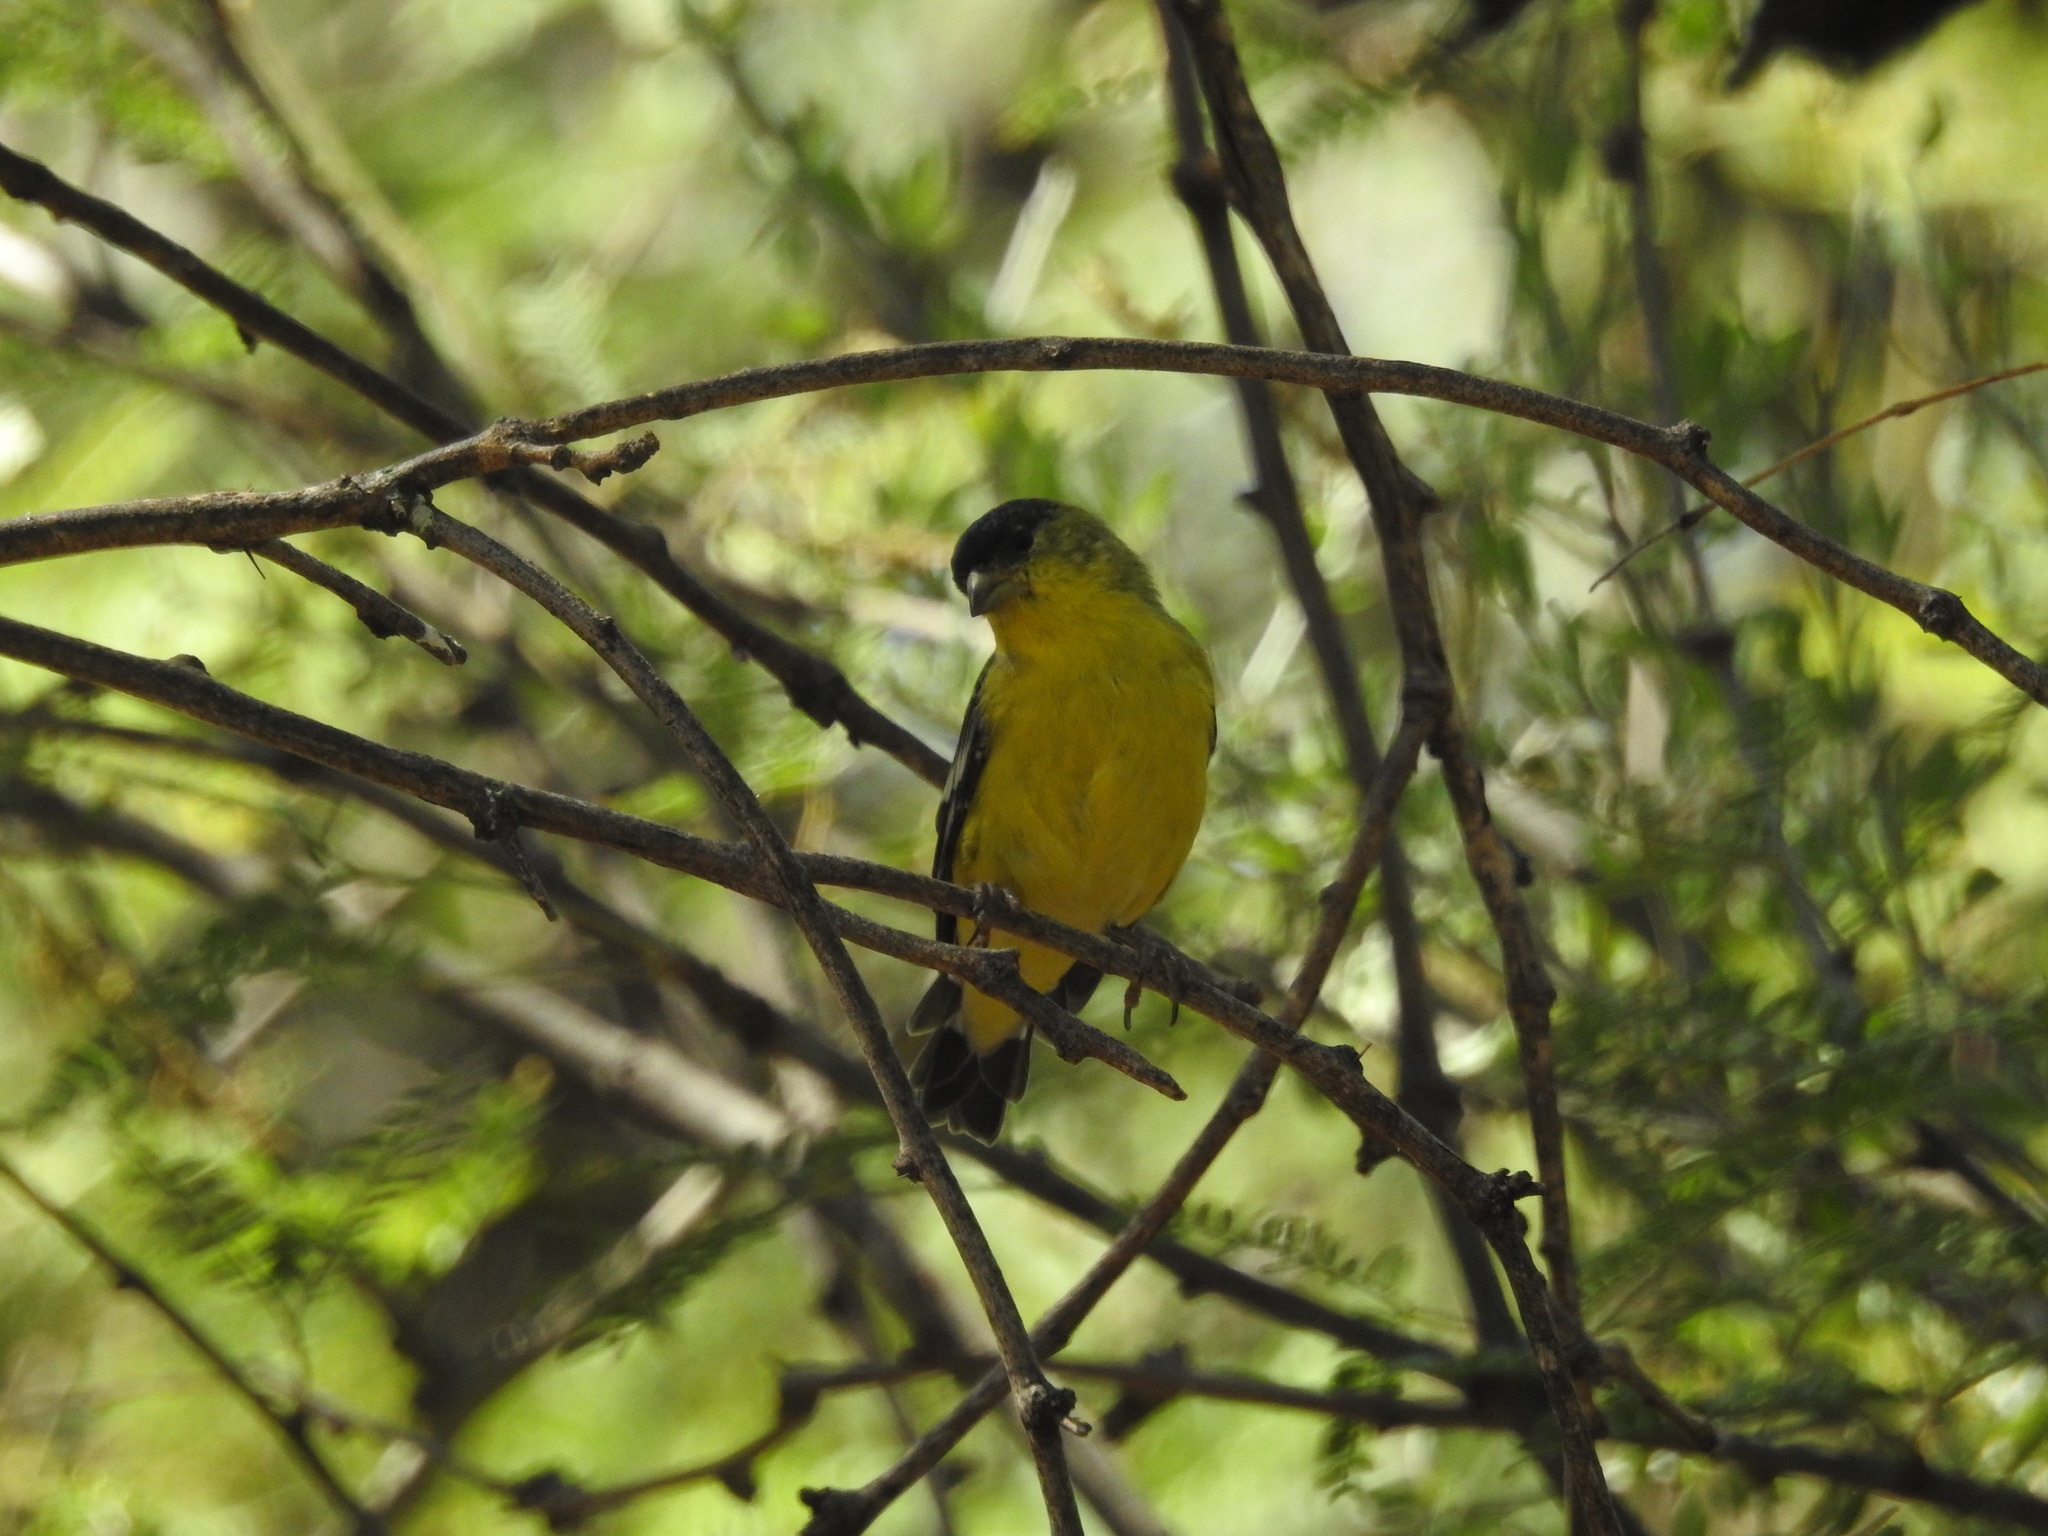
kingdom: Animalia
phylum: Chordata
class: Aves
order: Passeriformes
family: Fringillidae
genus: Spinus
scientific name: Spinus psaltria
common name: Lesser goldfinch
